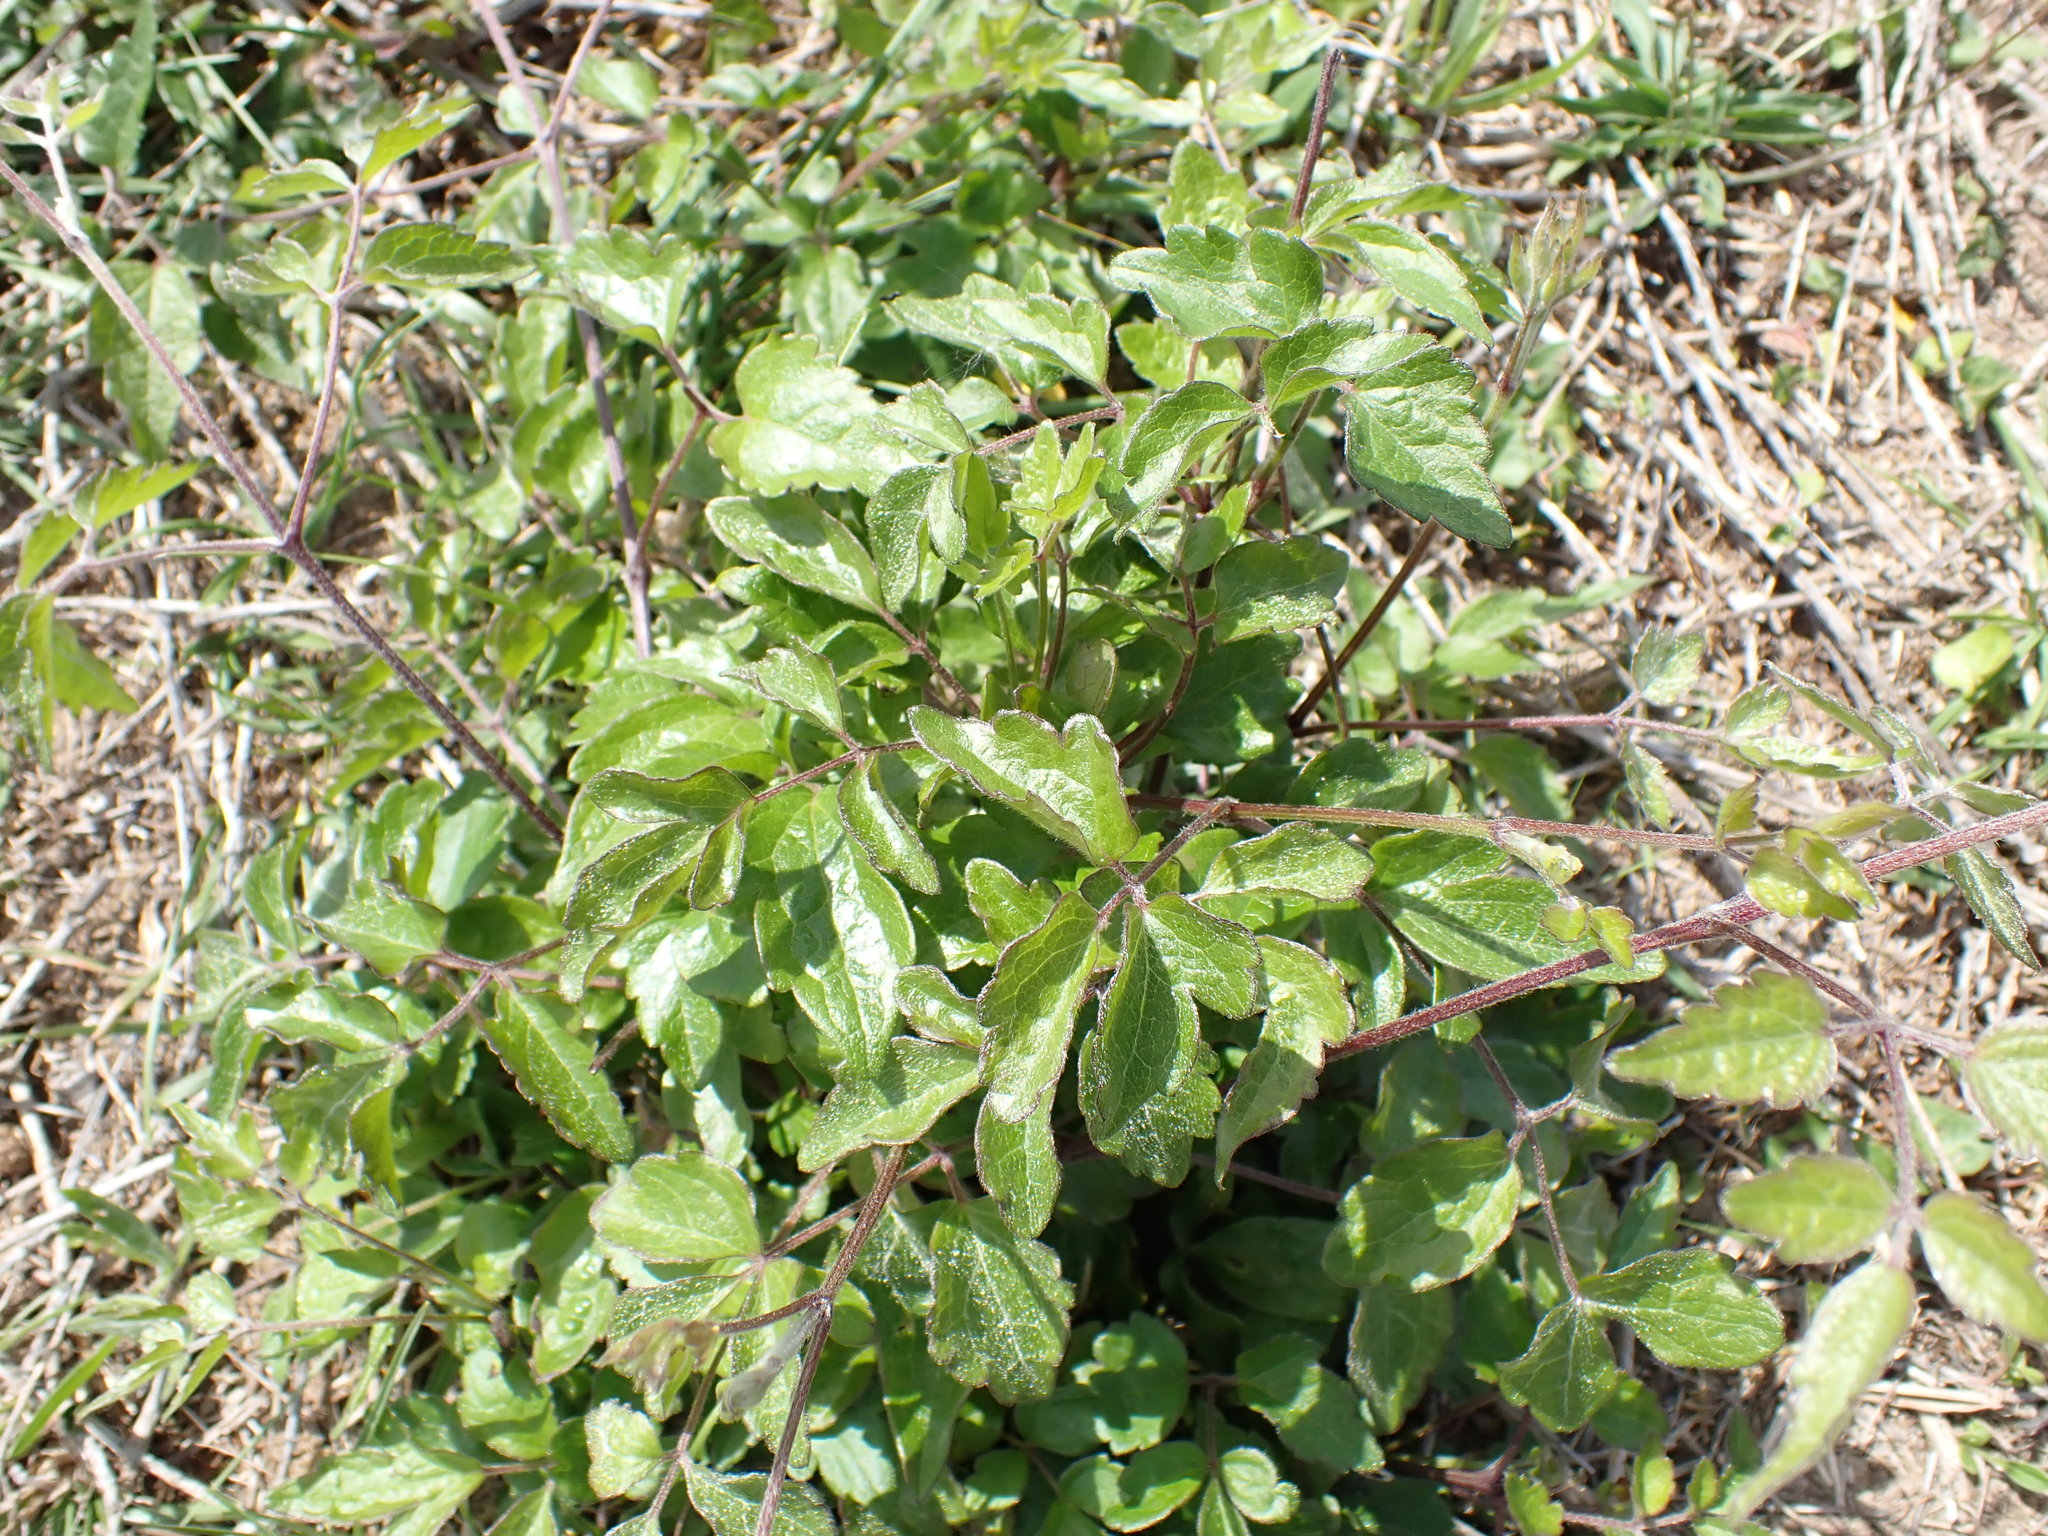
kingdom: Plantae
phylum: Tracheophyta
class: Magnoliopsida
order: Ranunculales
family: Ranunculaceae
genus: Clematis
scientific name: Clematis vitalba
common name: Evergreen clematis
